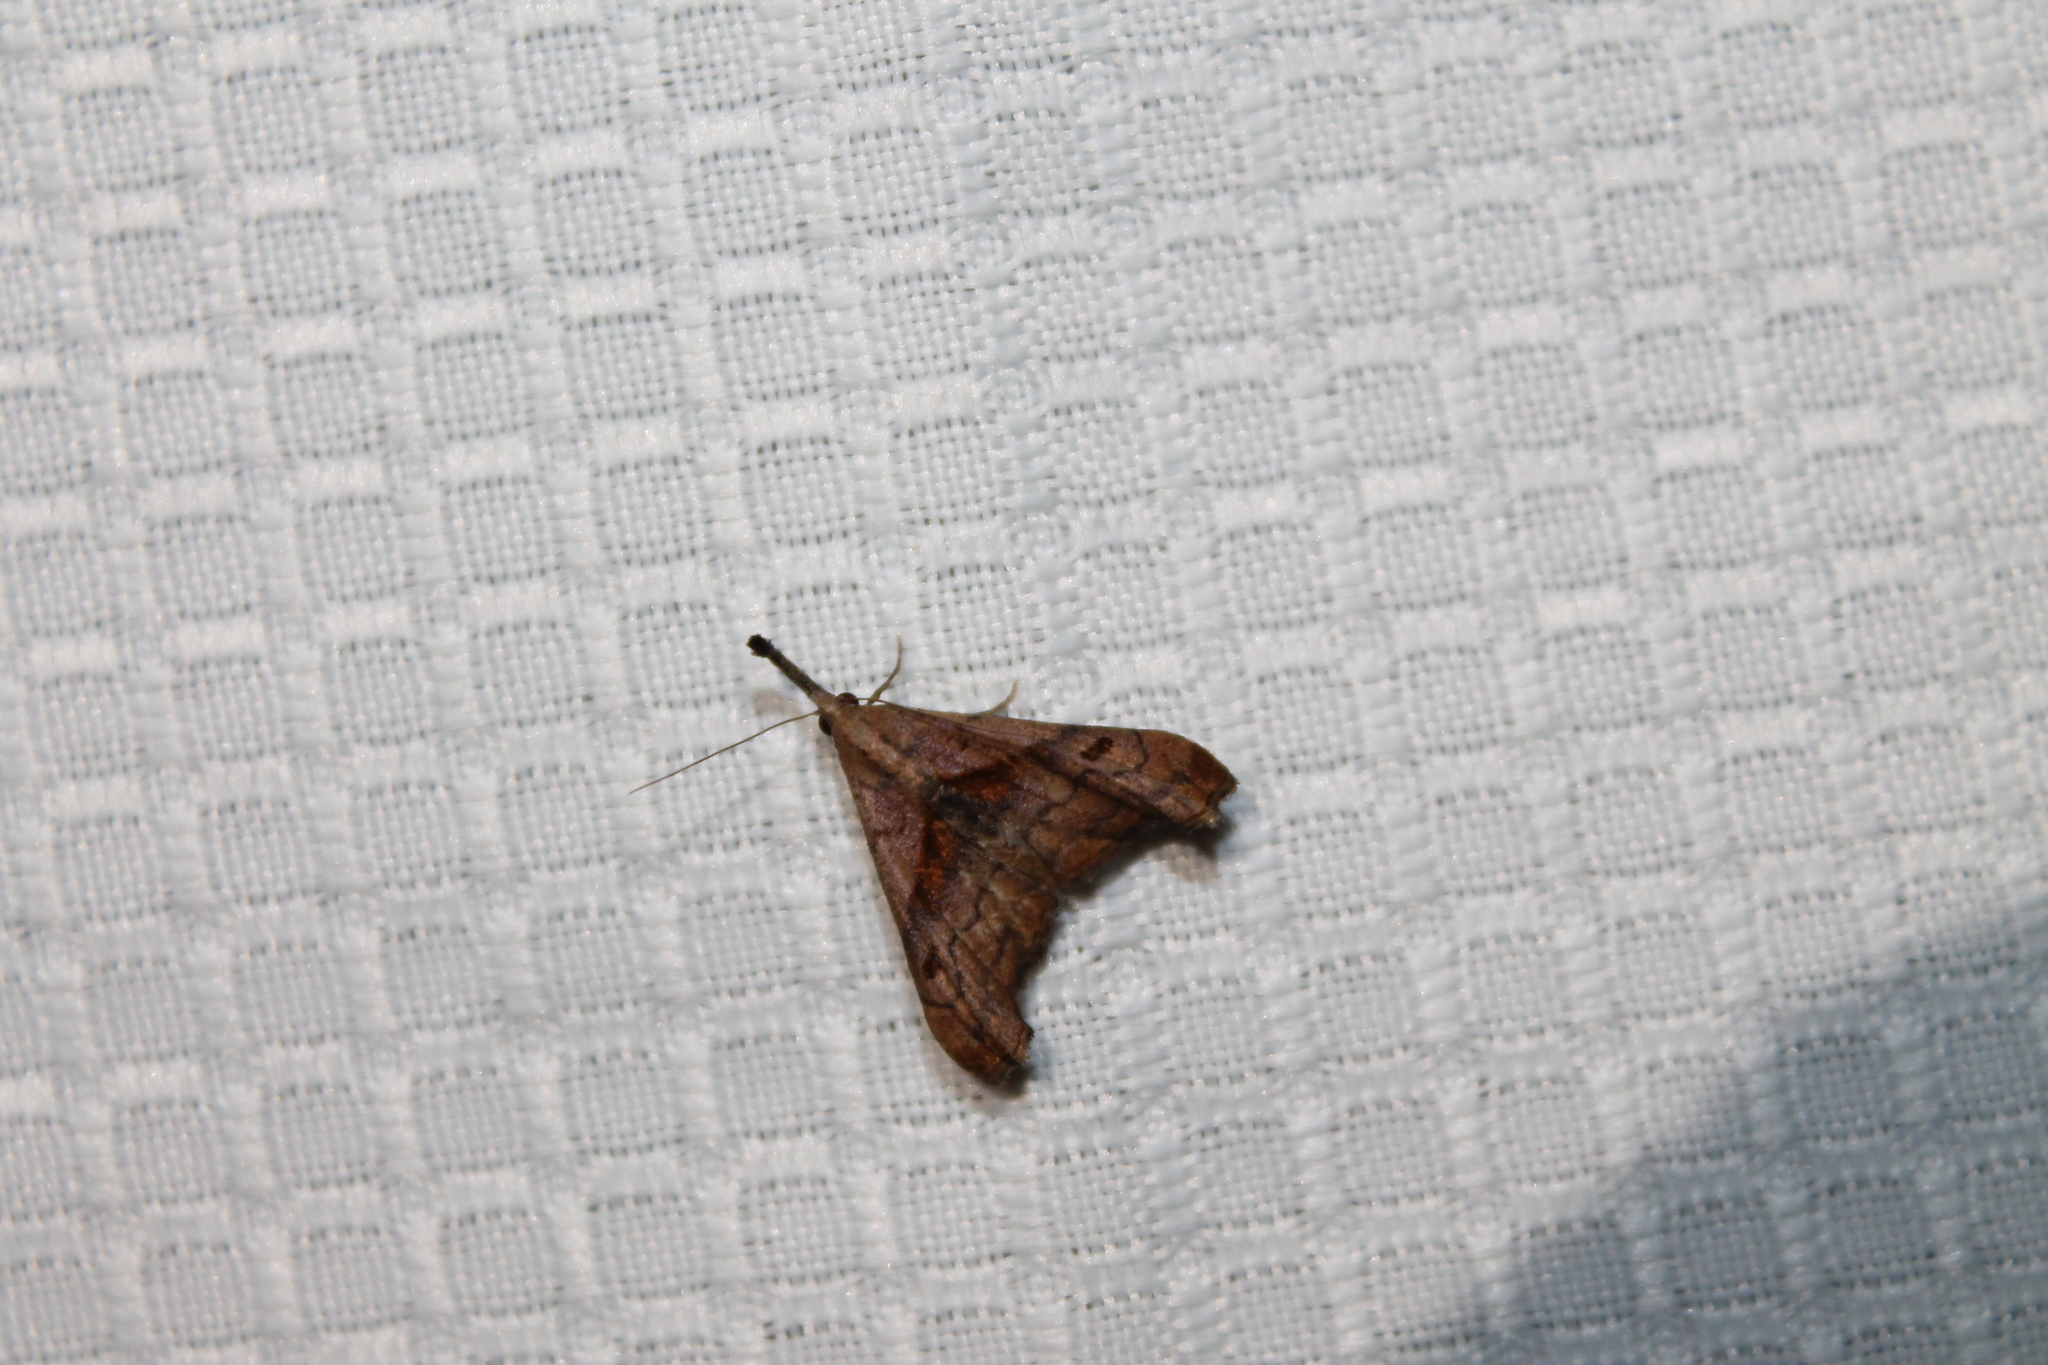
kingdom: Animalia
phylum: Arthropoda
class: Insecta
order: Lepidoptera
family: Erebidae
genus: Palthis
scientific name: Palthis angulalis
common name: Dark-spotted palthis moth
